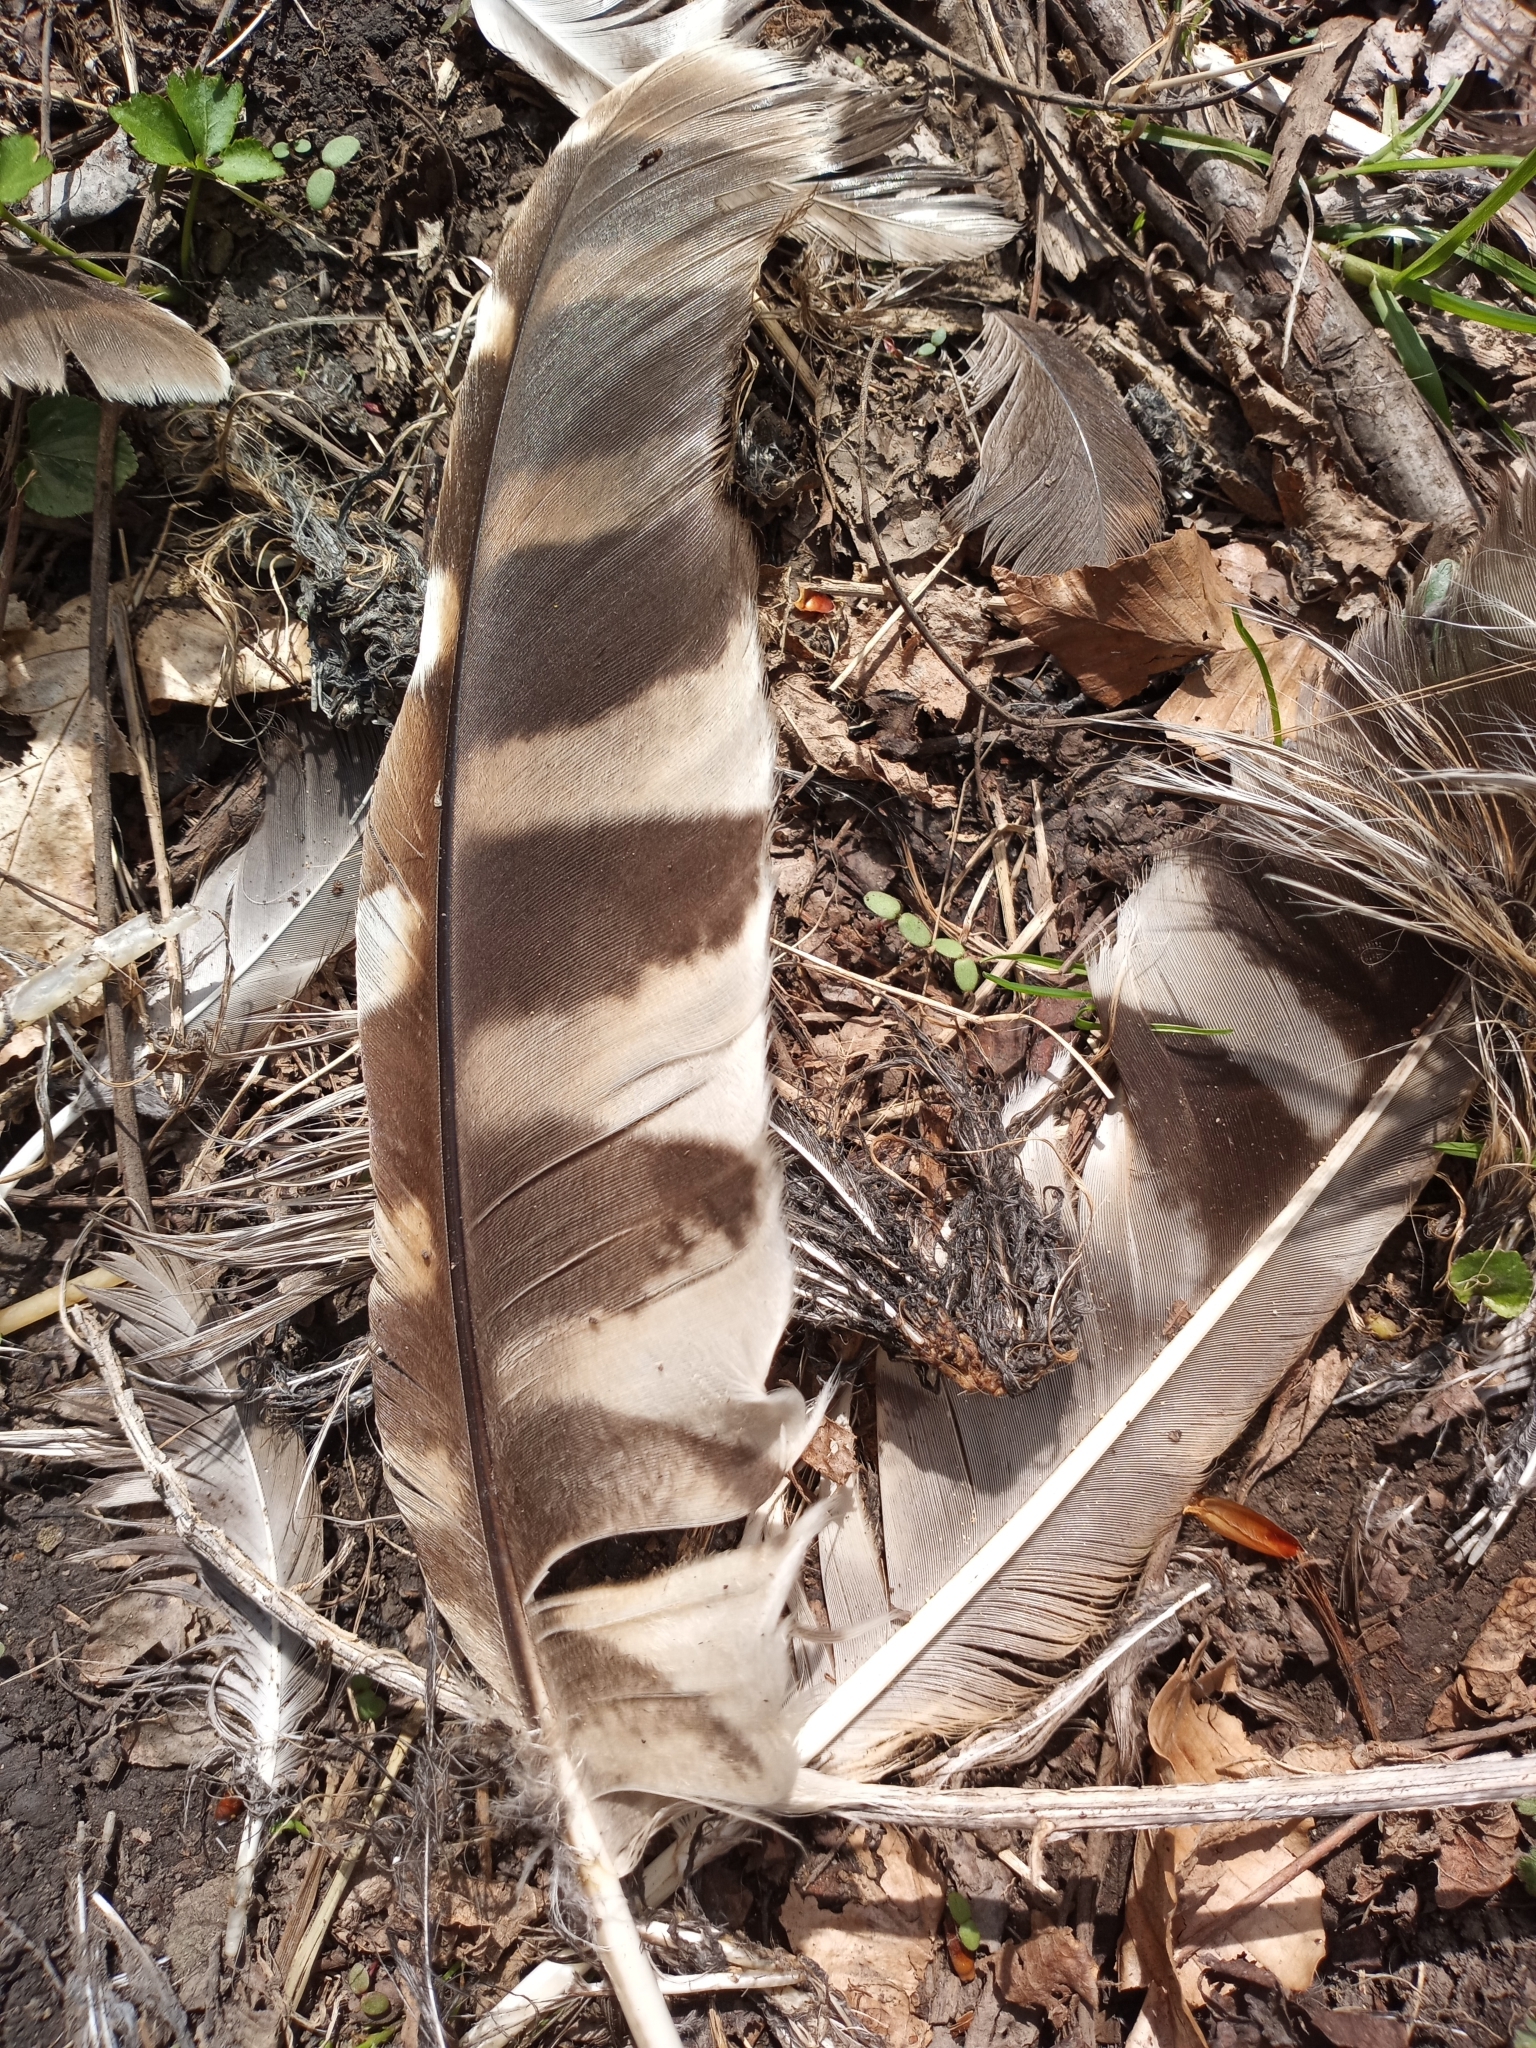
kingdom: Animalia
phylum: Chordata
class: Aves
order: Strigiformes
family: Strigidae
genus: Strix
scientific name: Strix varia
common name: Barred owl
